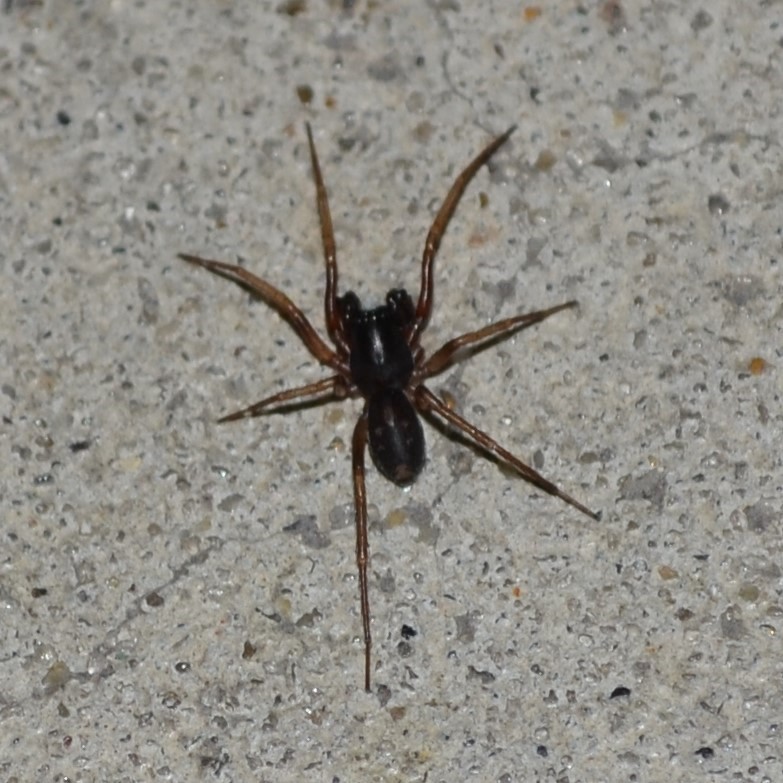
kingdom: Animalia
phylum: Arthropoda
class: Arachnida
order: Araneae
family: Corinnidae
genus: Falconina
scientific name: Falconina gracilis
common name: Antmimic spider
